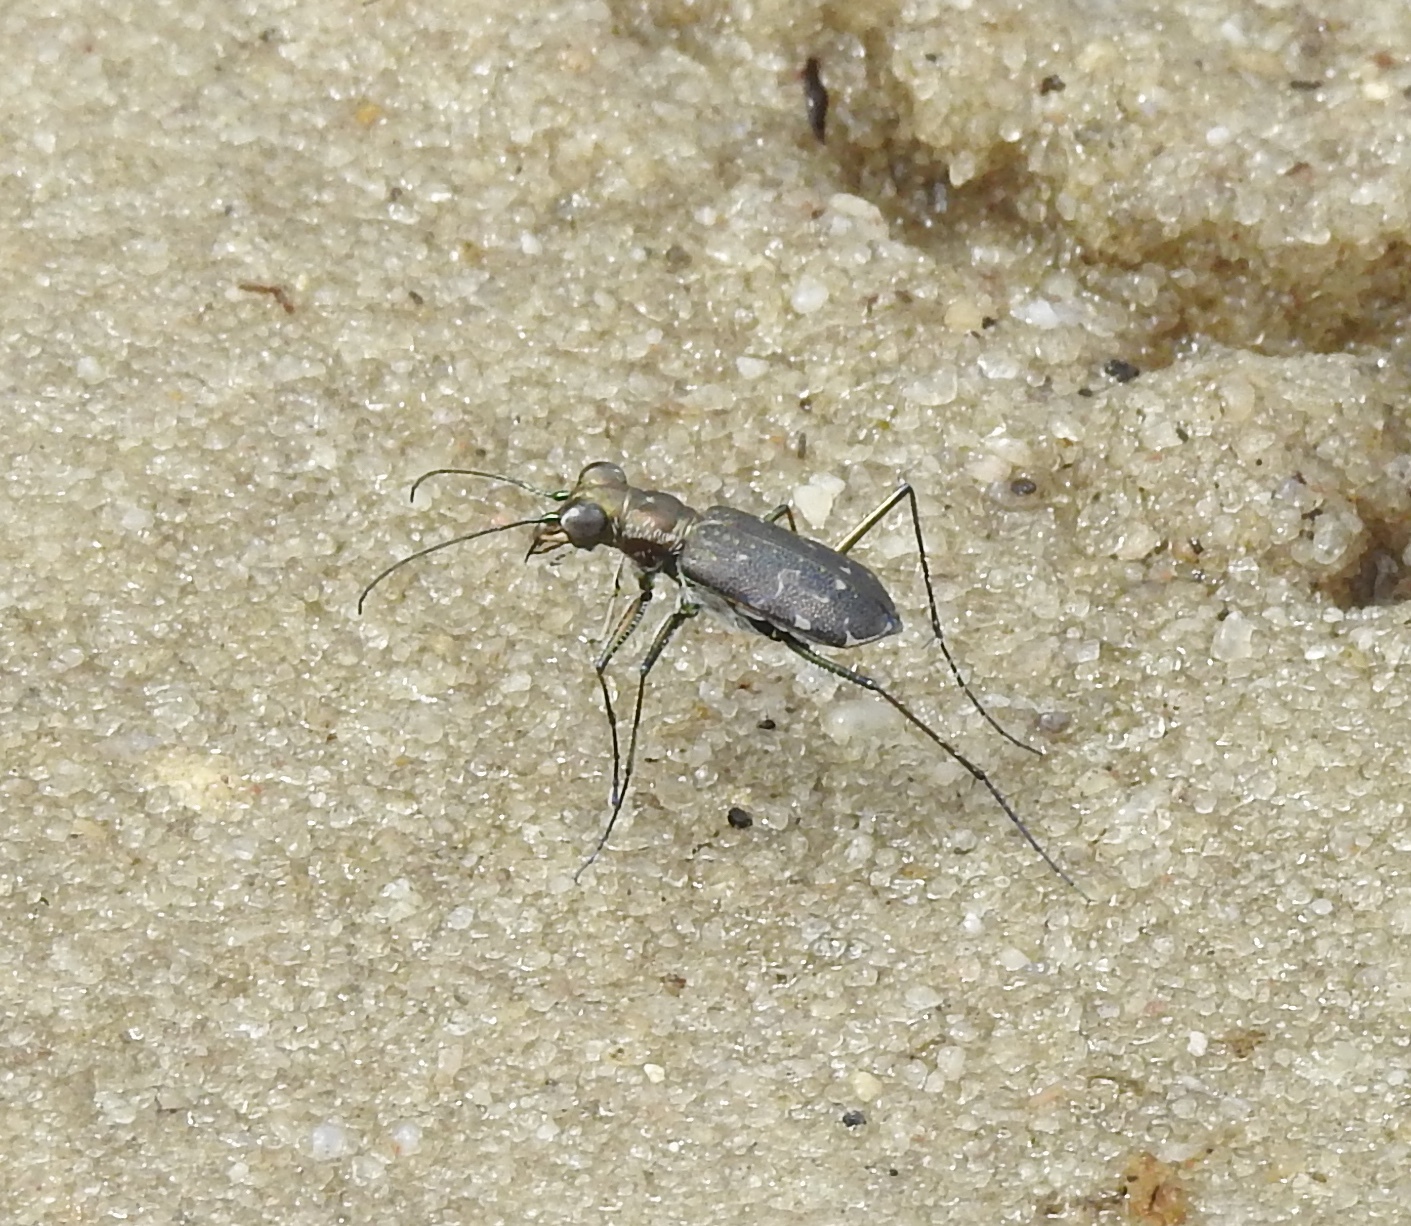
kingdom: Animalia
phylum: Arthropoda
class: Insecta
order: Coleoptera
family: Carabidae
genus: Cicindela
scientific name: Cicindela trifasciata
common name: Mudflat tiger beetle
